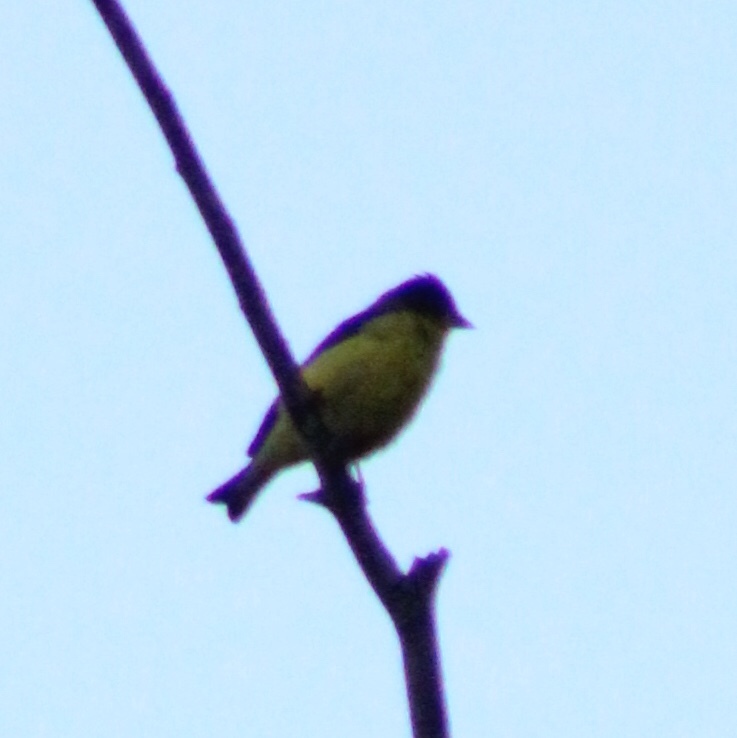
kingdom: Animalia
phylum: Chordata
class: Aves
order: Passeriformes
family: Fringillidae
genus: Spinus
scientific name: Spinus psaltria
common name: Lesser goldfinch
